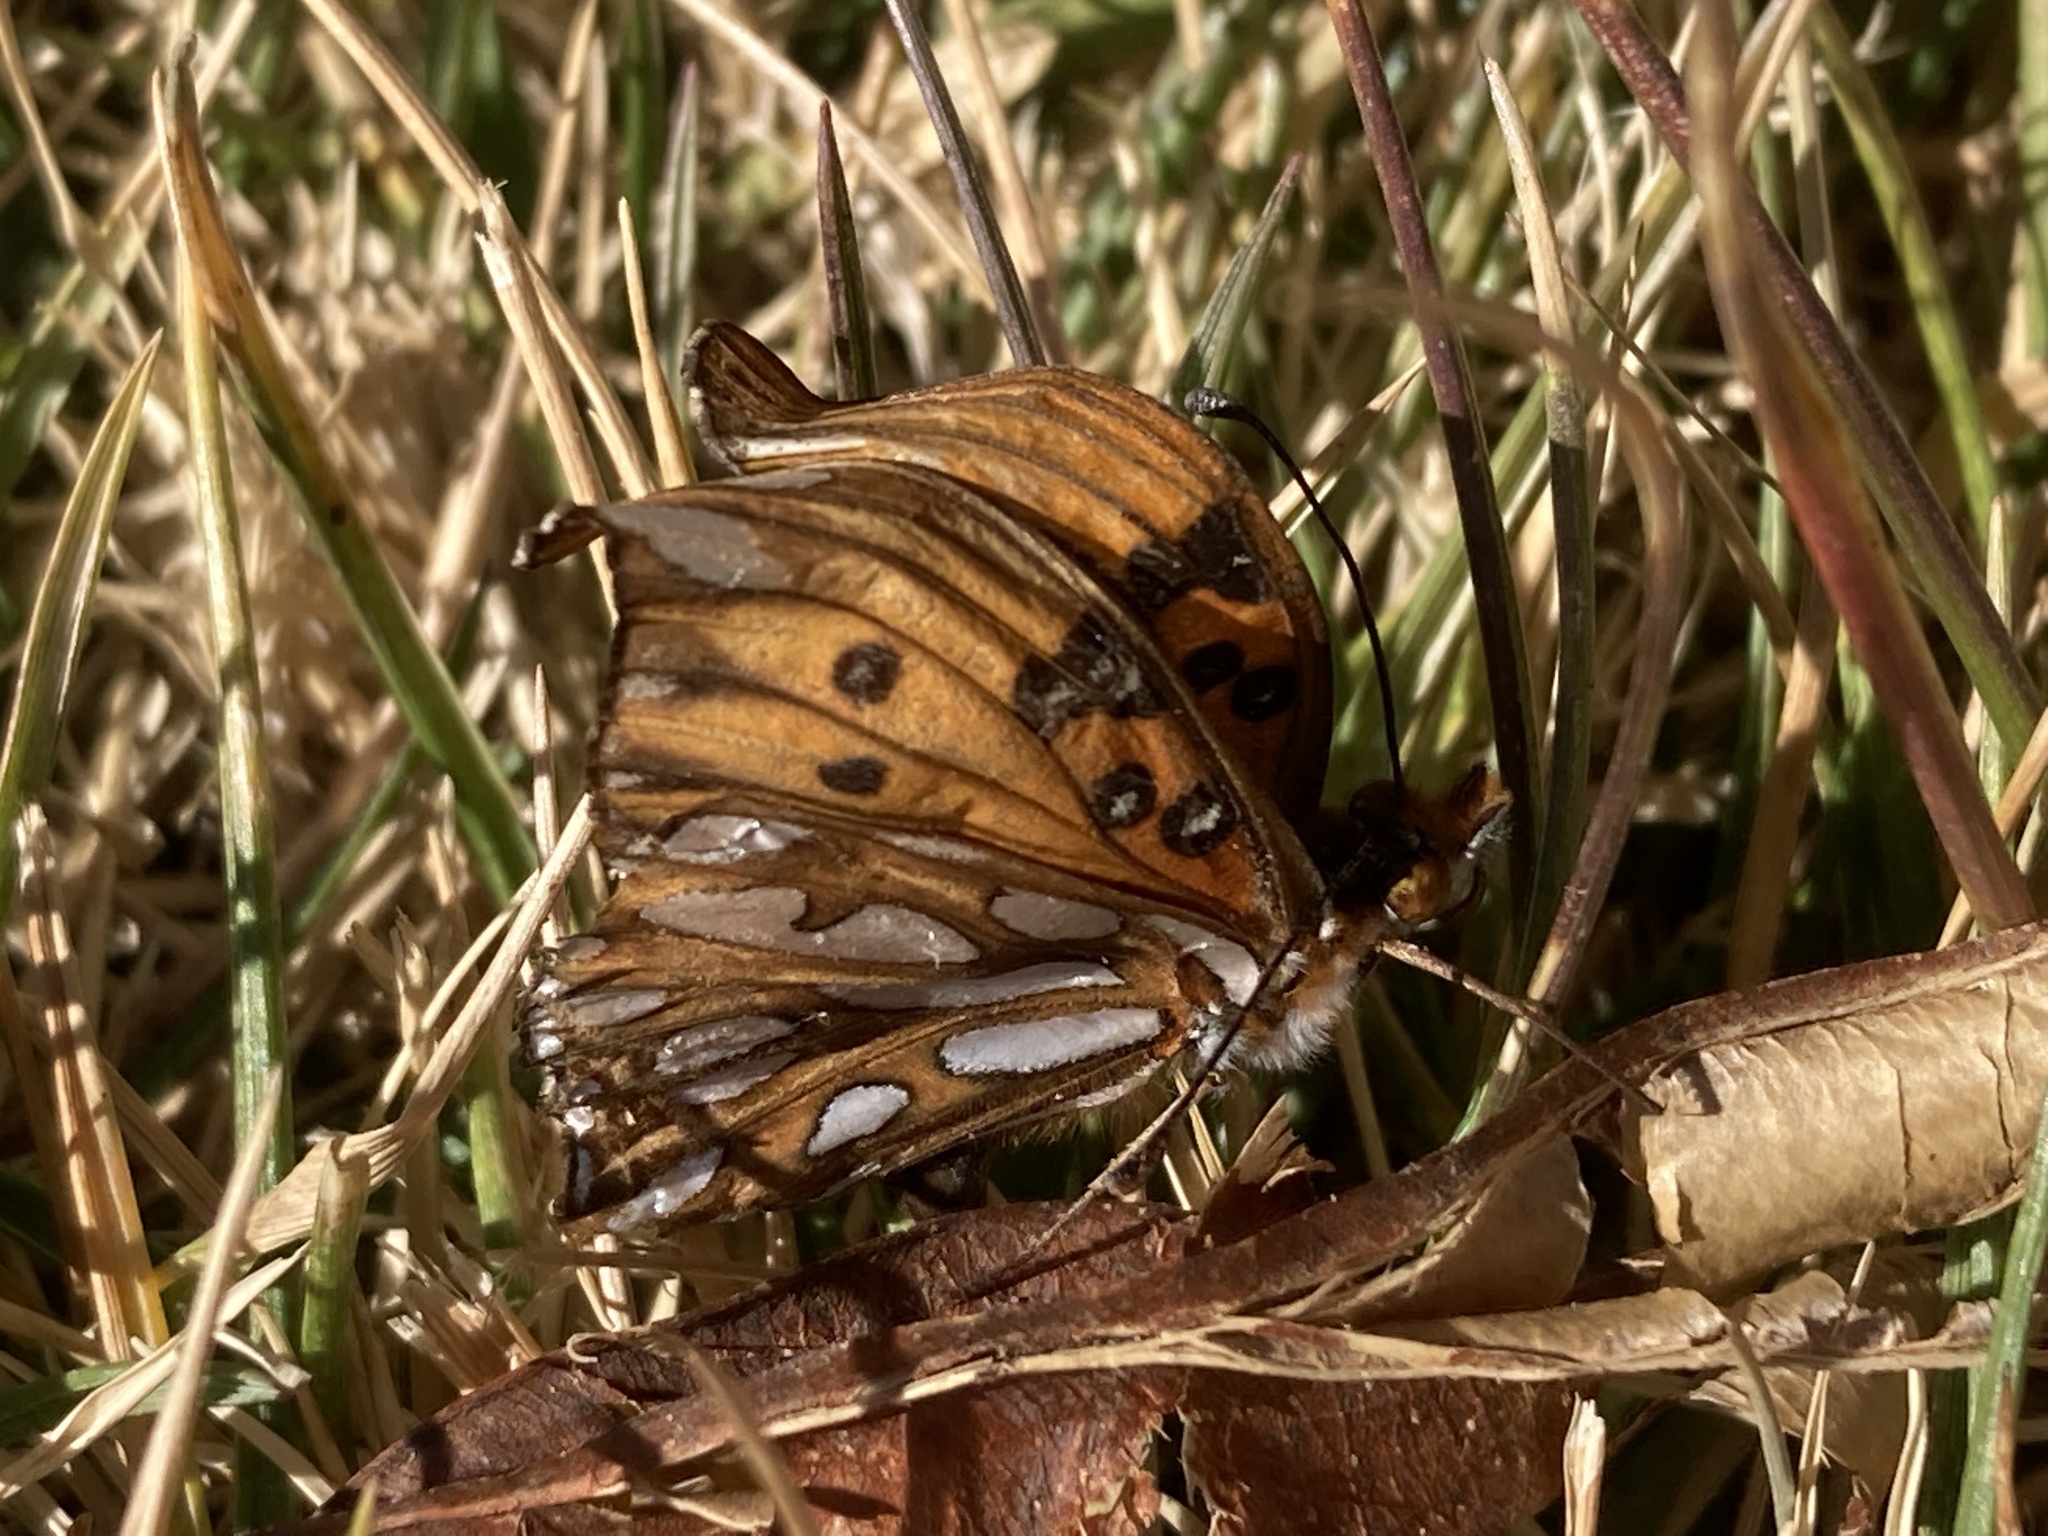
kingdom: Animalia
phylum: Arthropoda
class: Insecta
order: Lepidoptera
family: Nymphalidae
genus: Dione
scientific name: Dione vanillae
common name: Gulf fritillary
